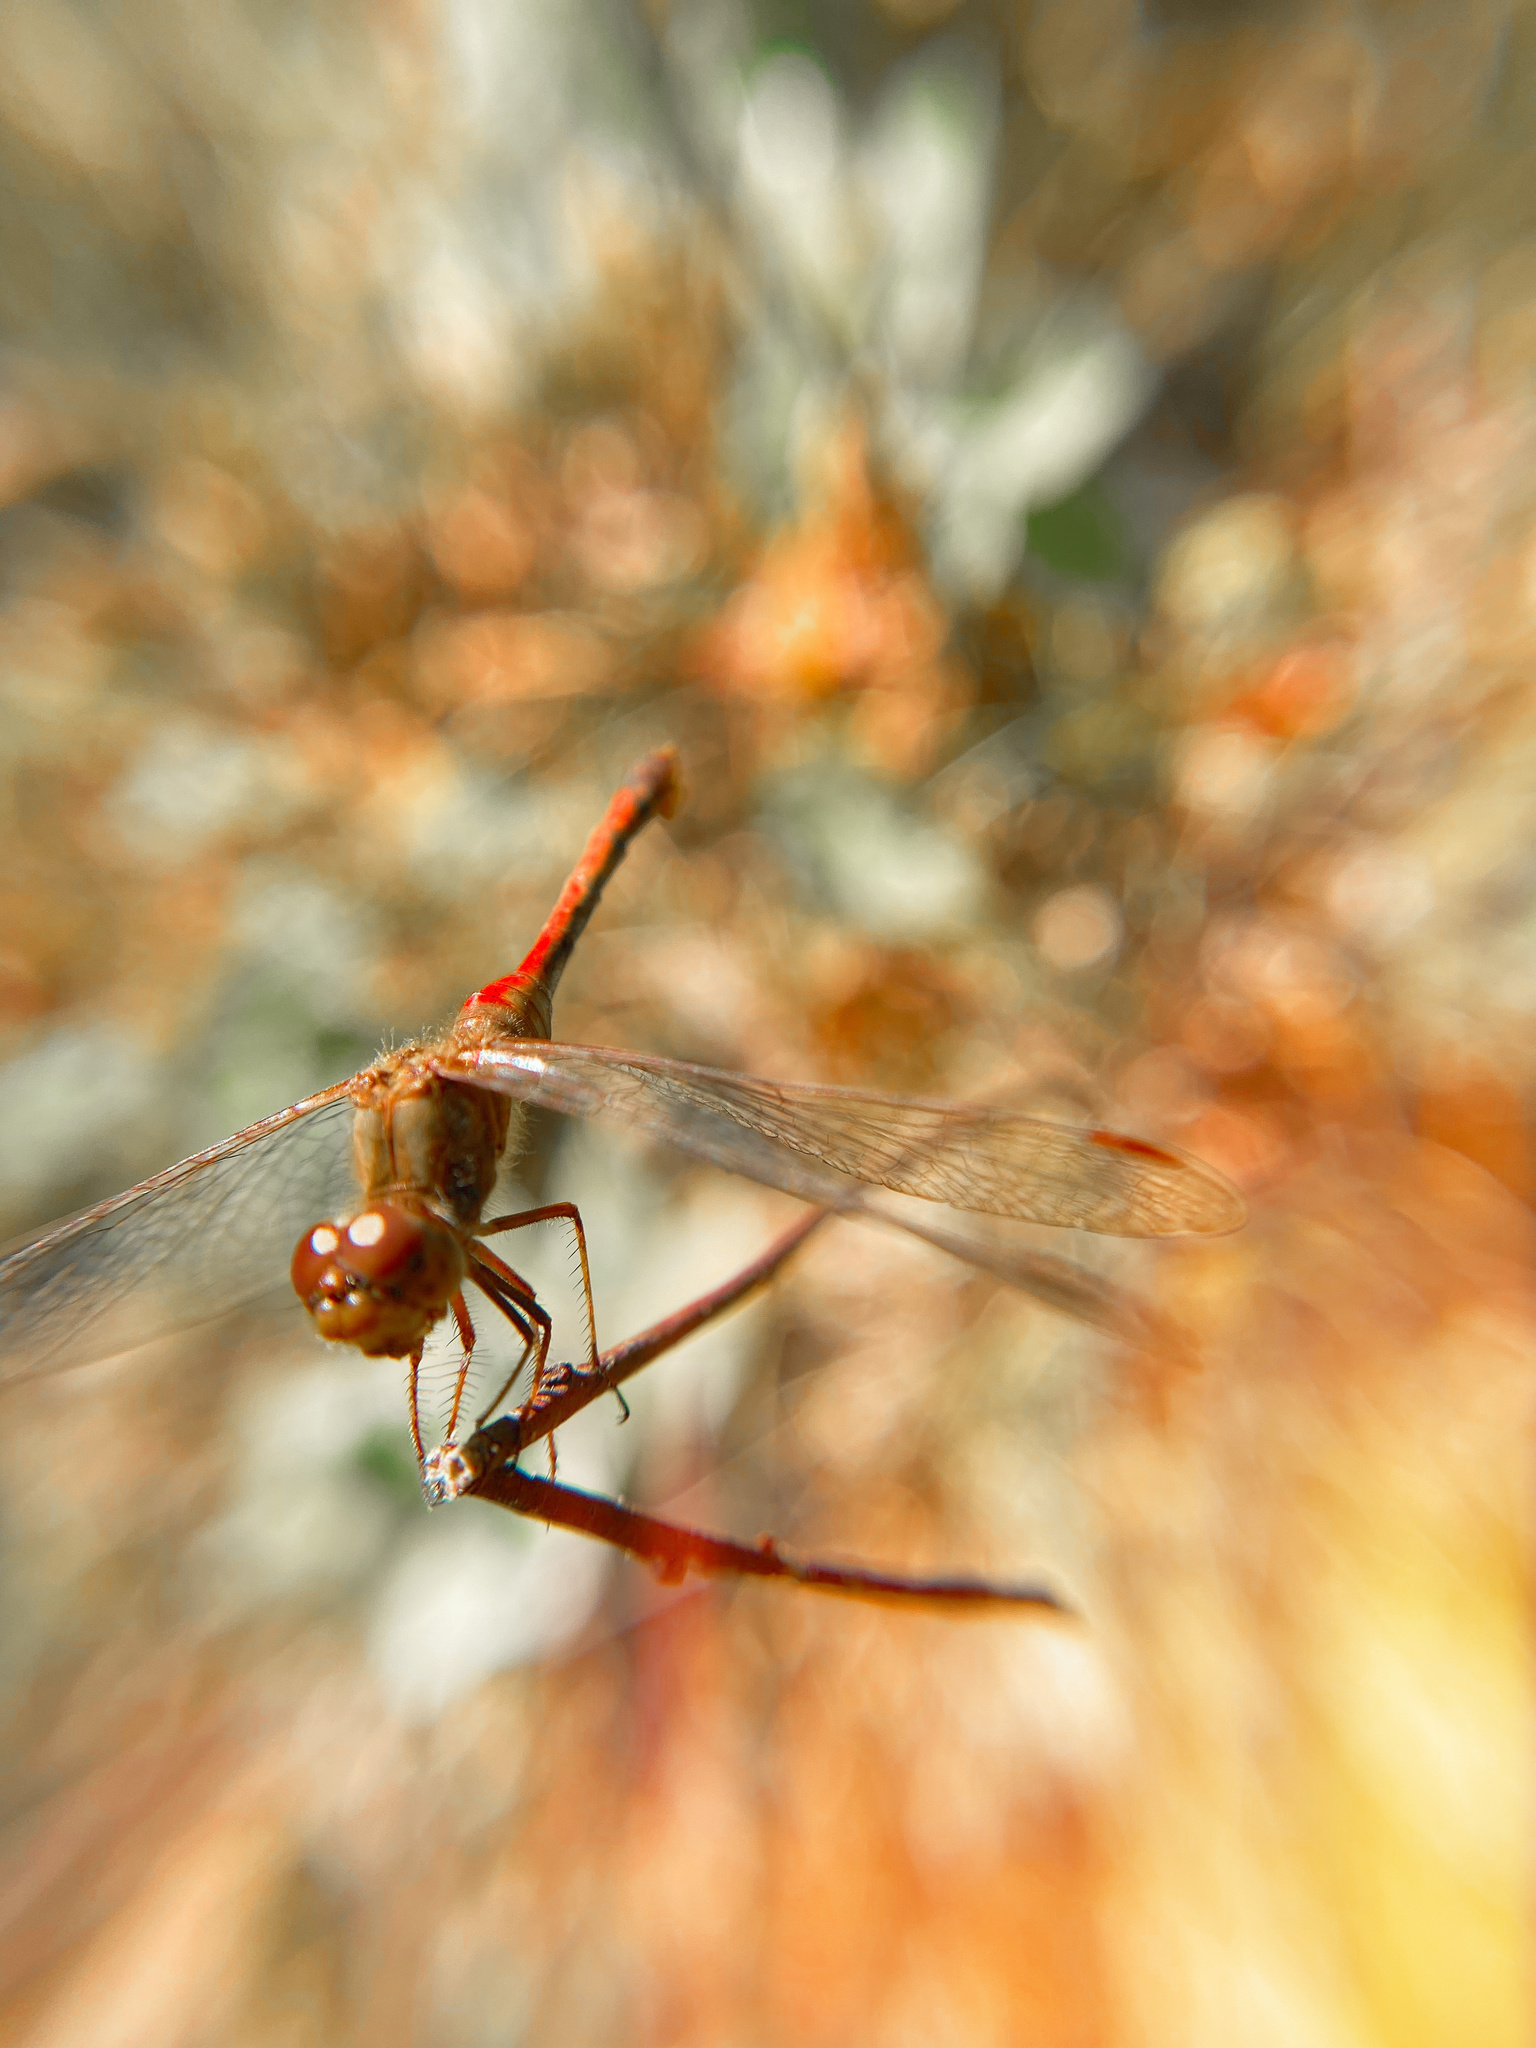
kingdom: Animalia
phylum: Arthropoda
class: Insecta
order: Odonata
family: Libellulidae
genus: Sympetrum
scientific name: Sympetrum vicinum
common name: Autumn meadowhawk
